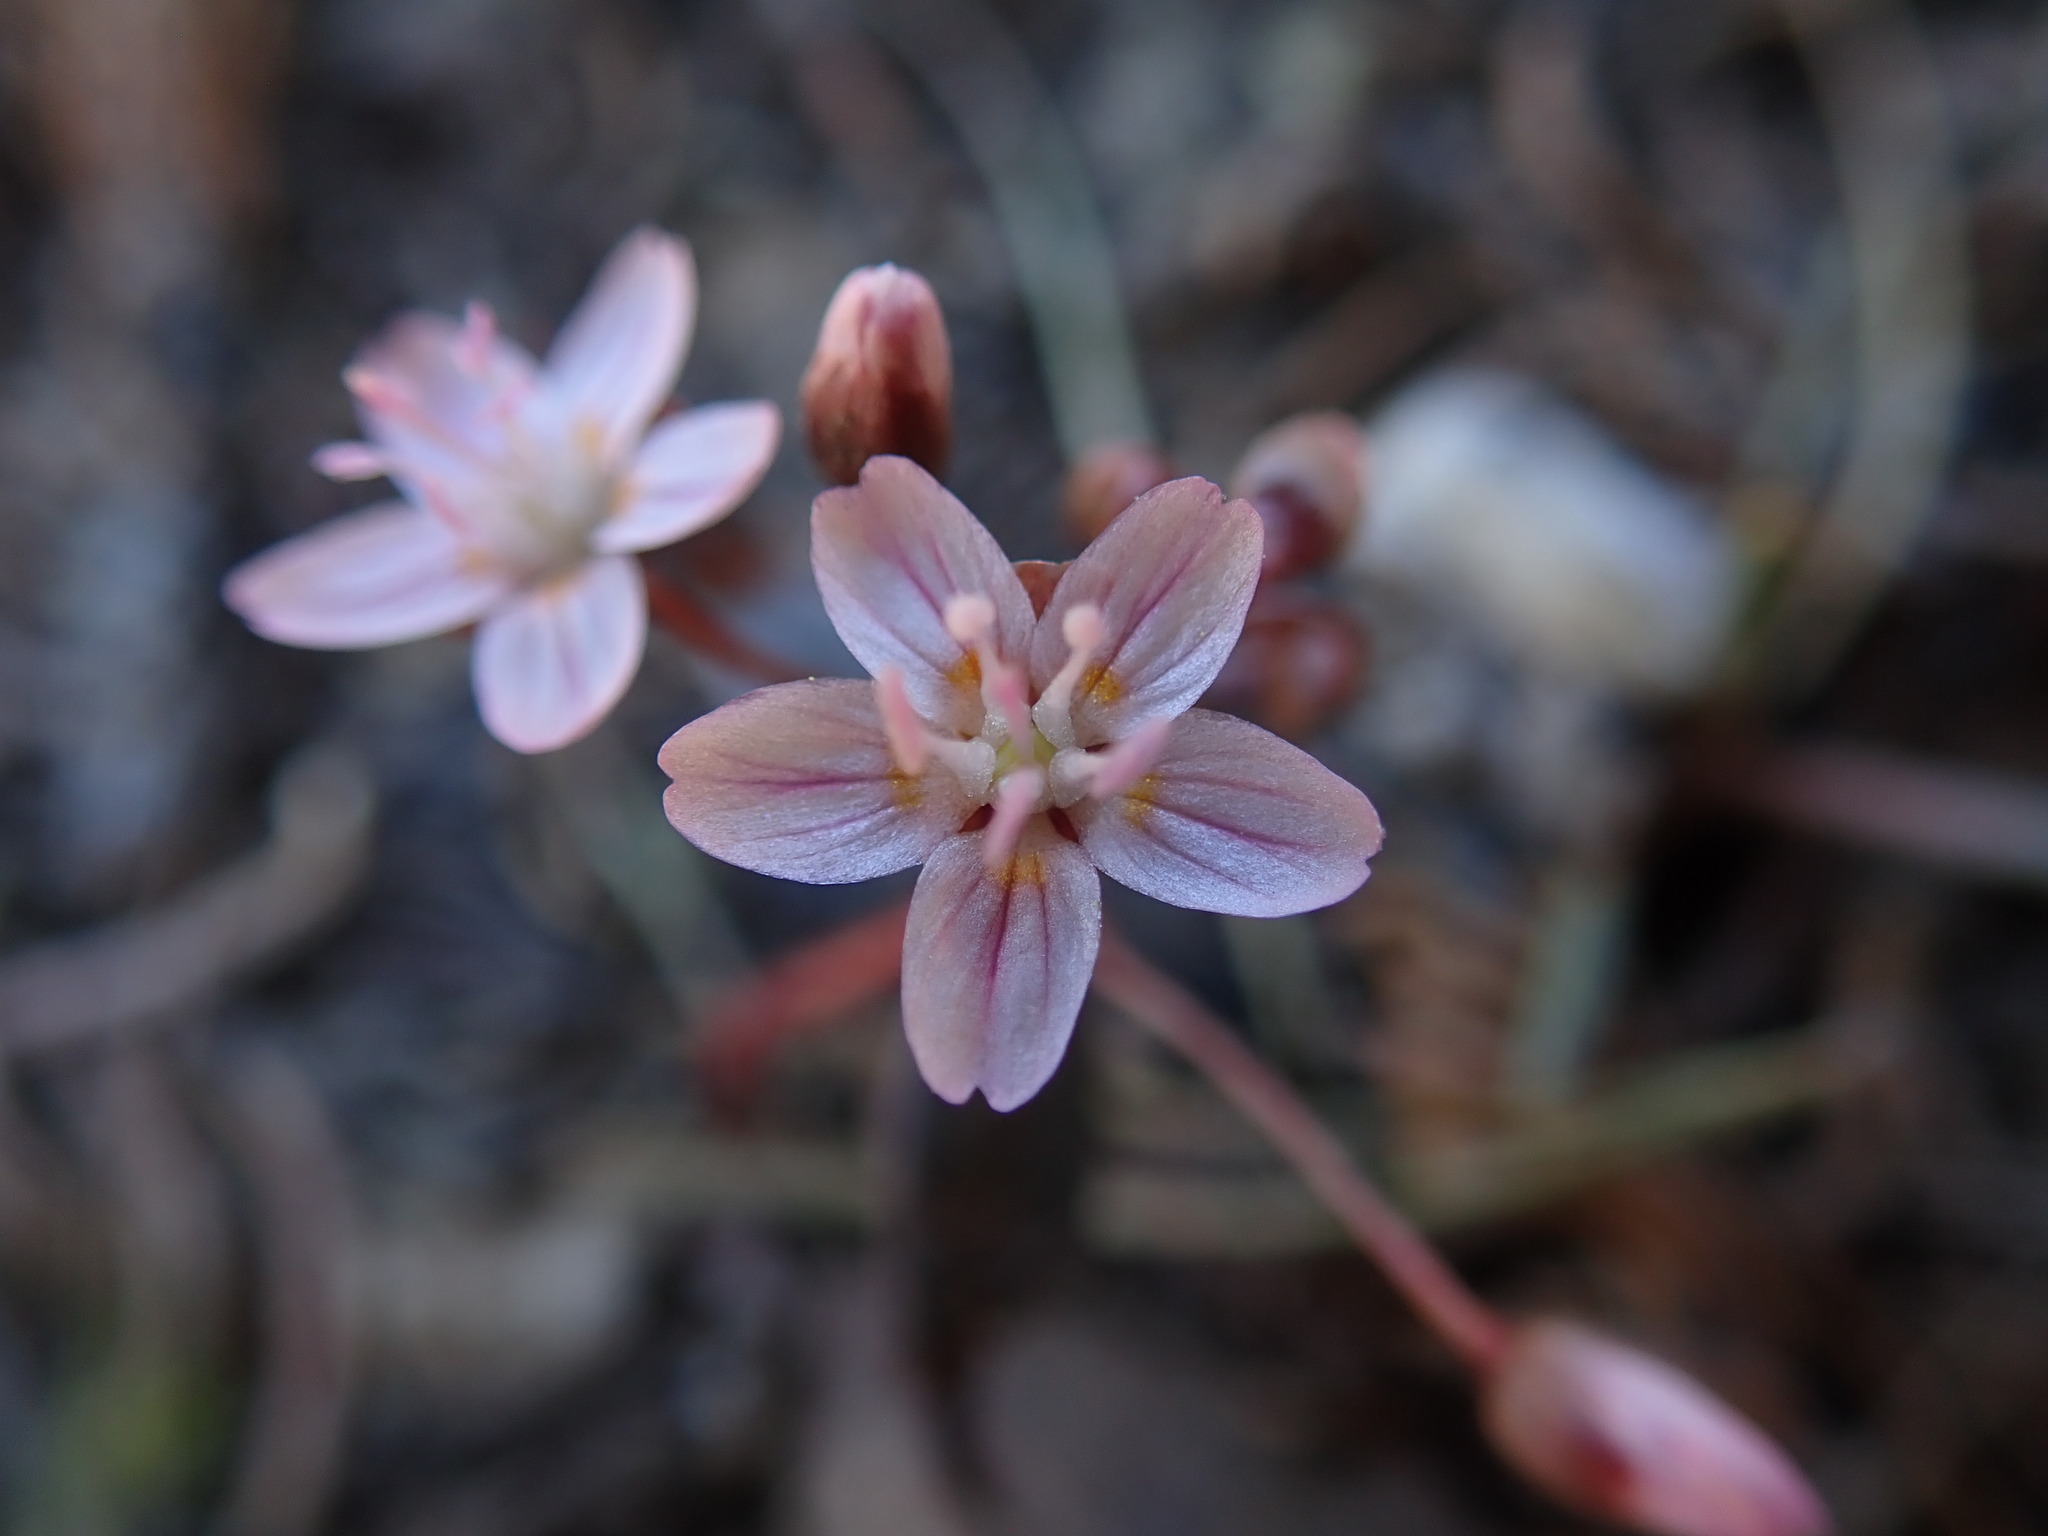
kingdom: Plantae
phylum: Tracheophyta
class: Magnoliopsida
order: Caryophyllales
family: Montiaceae
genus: Claytonia
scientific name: Claytonia lanceolata
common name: Western spring-beauty
